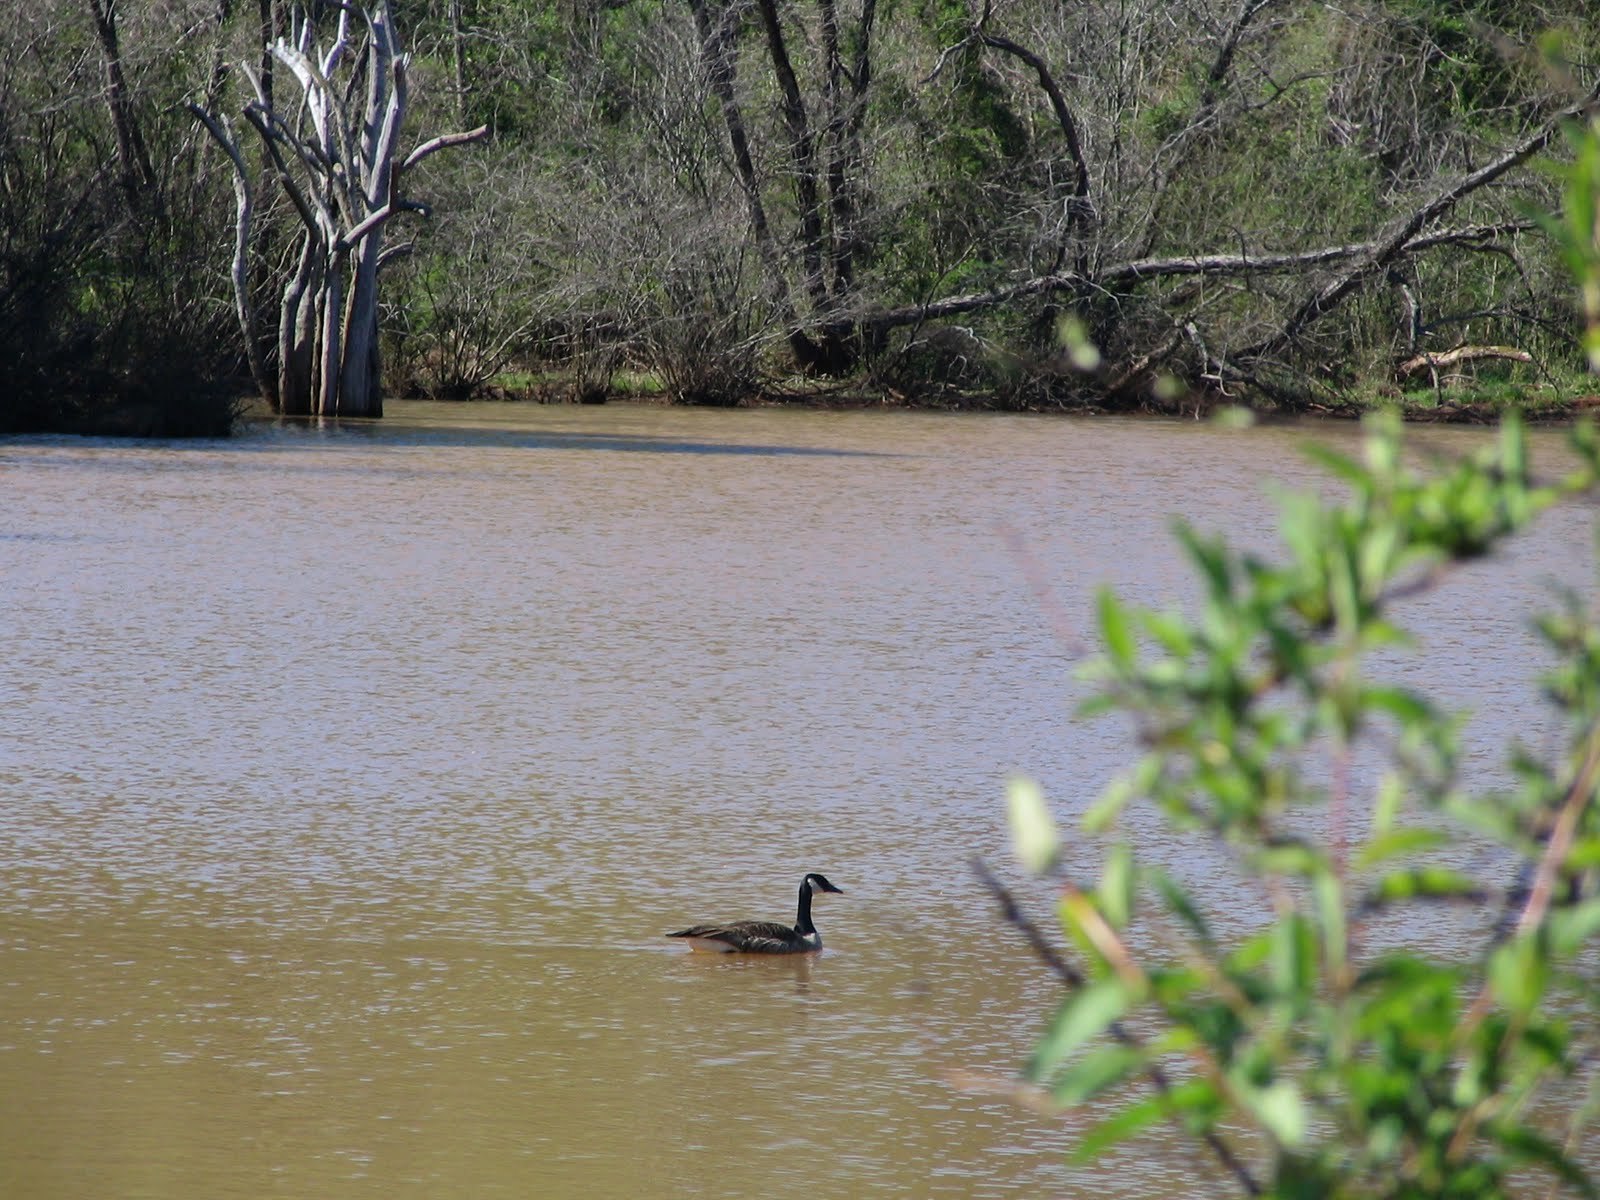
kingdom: Animalia
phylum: Chordata
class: Aves
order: Anseriformes
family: Anatidae
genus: Branta
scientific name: Branta canadensis
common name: Canada goose
